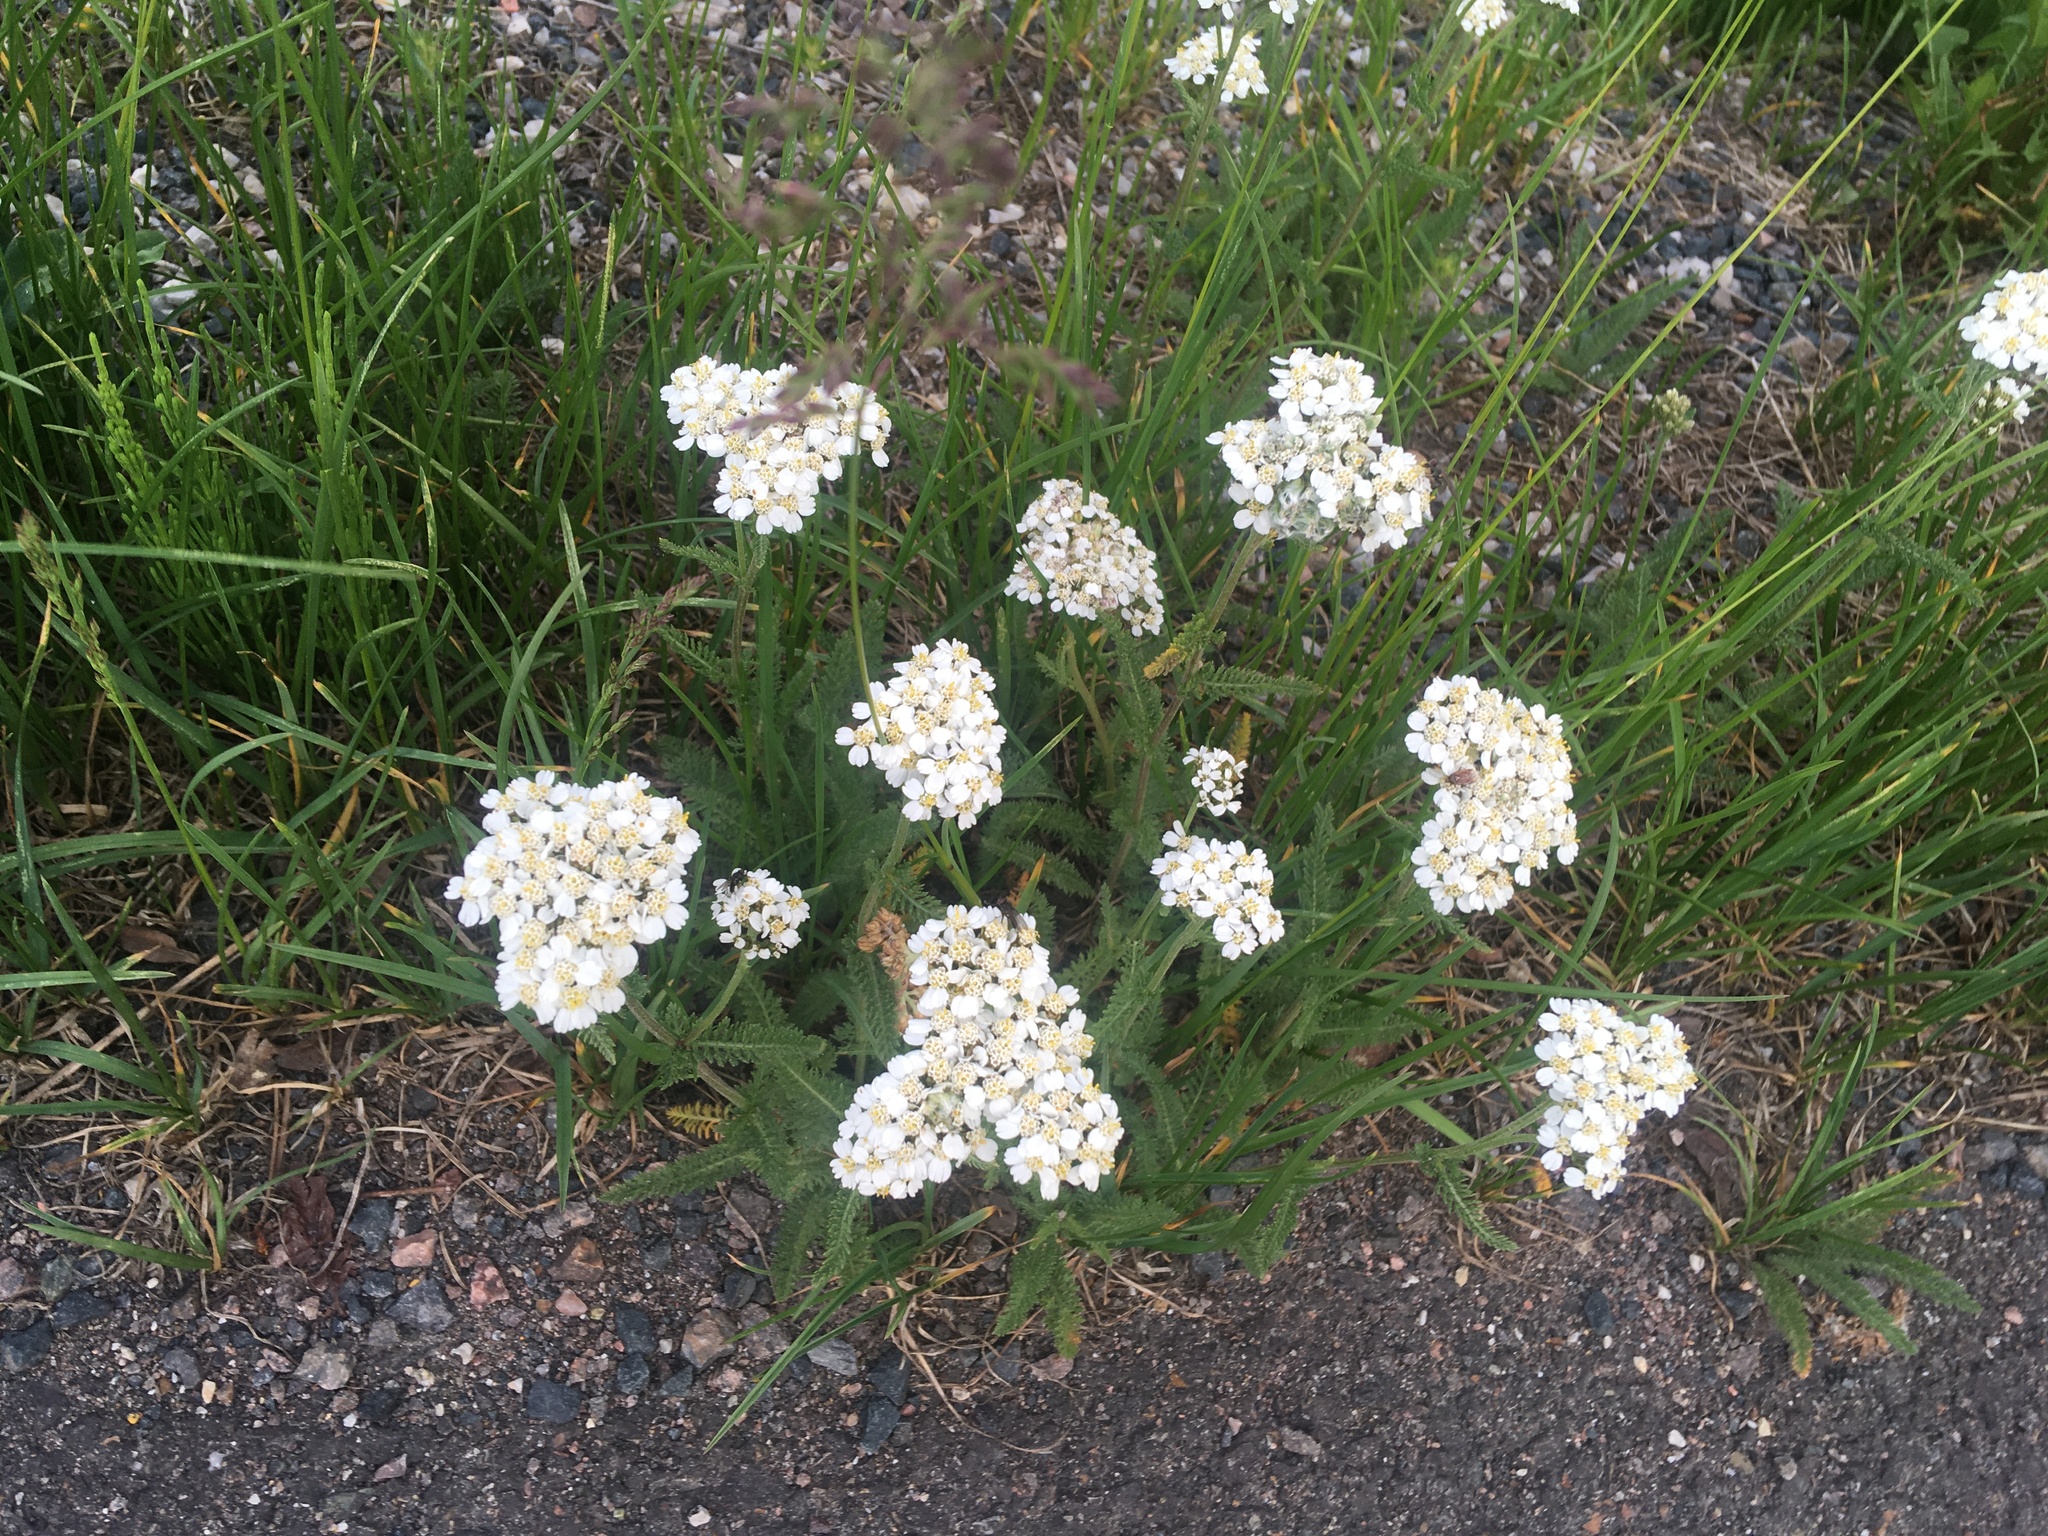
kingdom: Plantae
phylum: Tracheophyta
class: Magnoliopsida
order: Asterales
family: Asteraceae
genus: Achillea
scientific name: Achillea millefolium
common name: Yarrow
